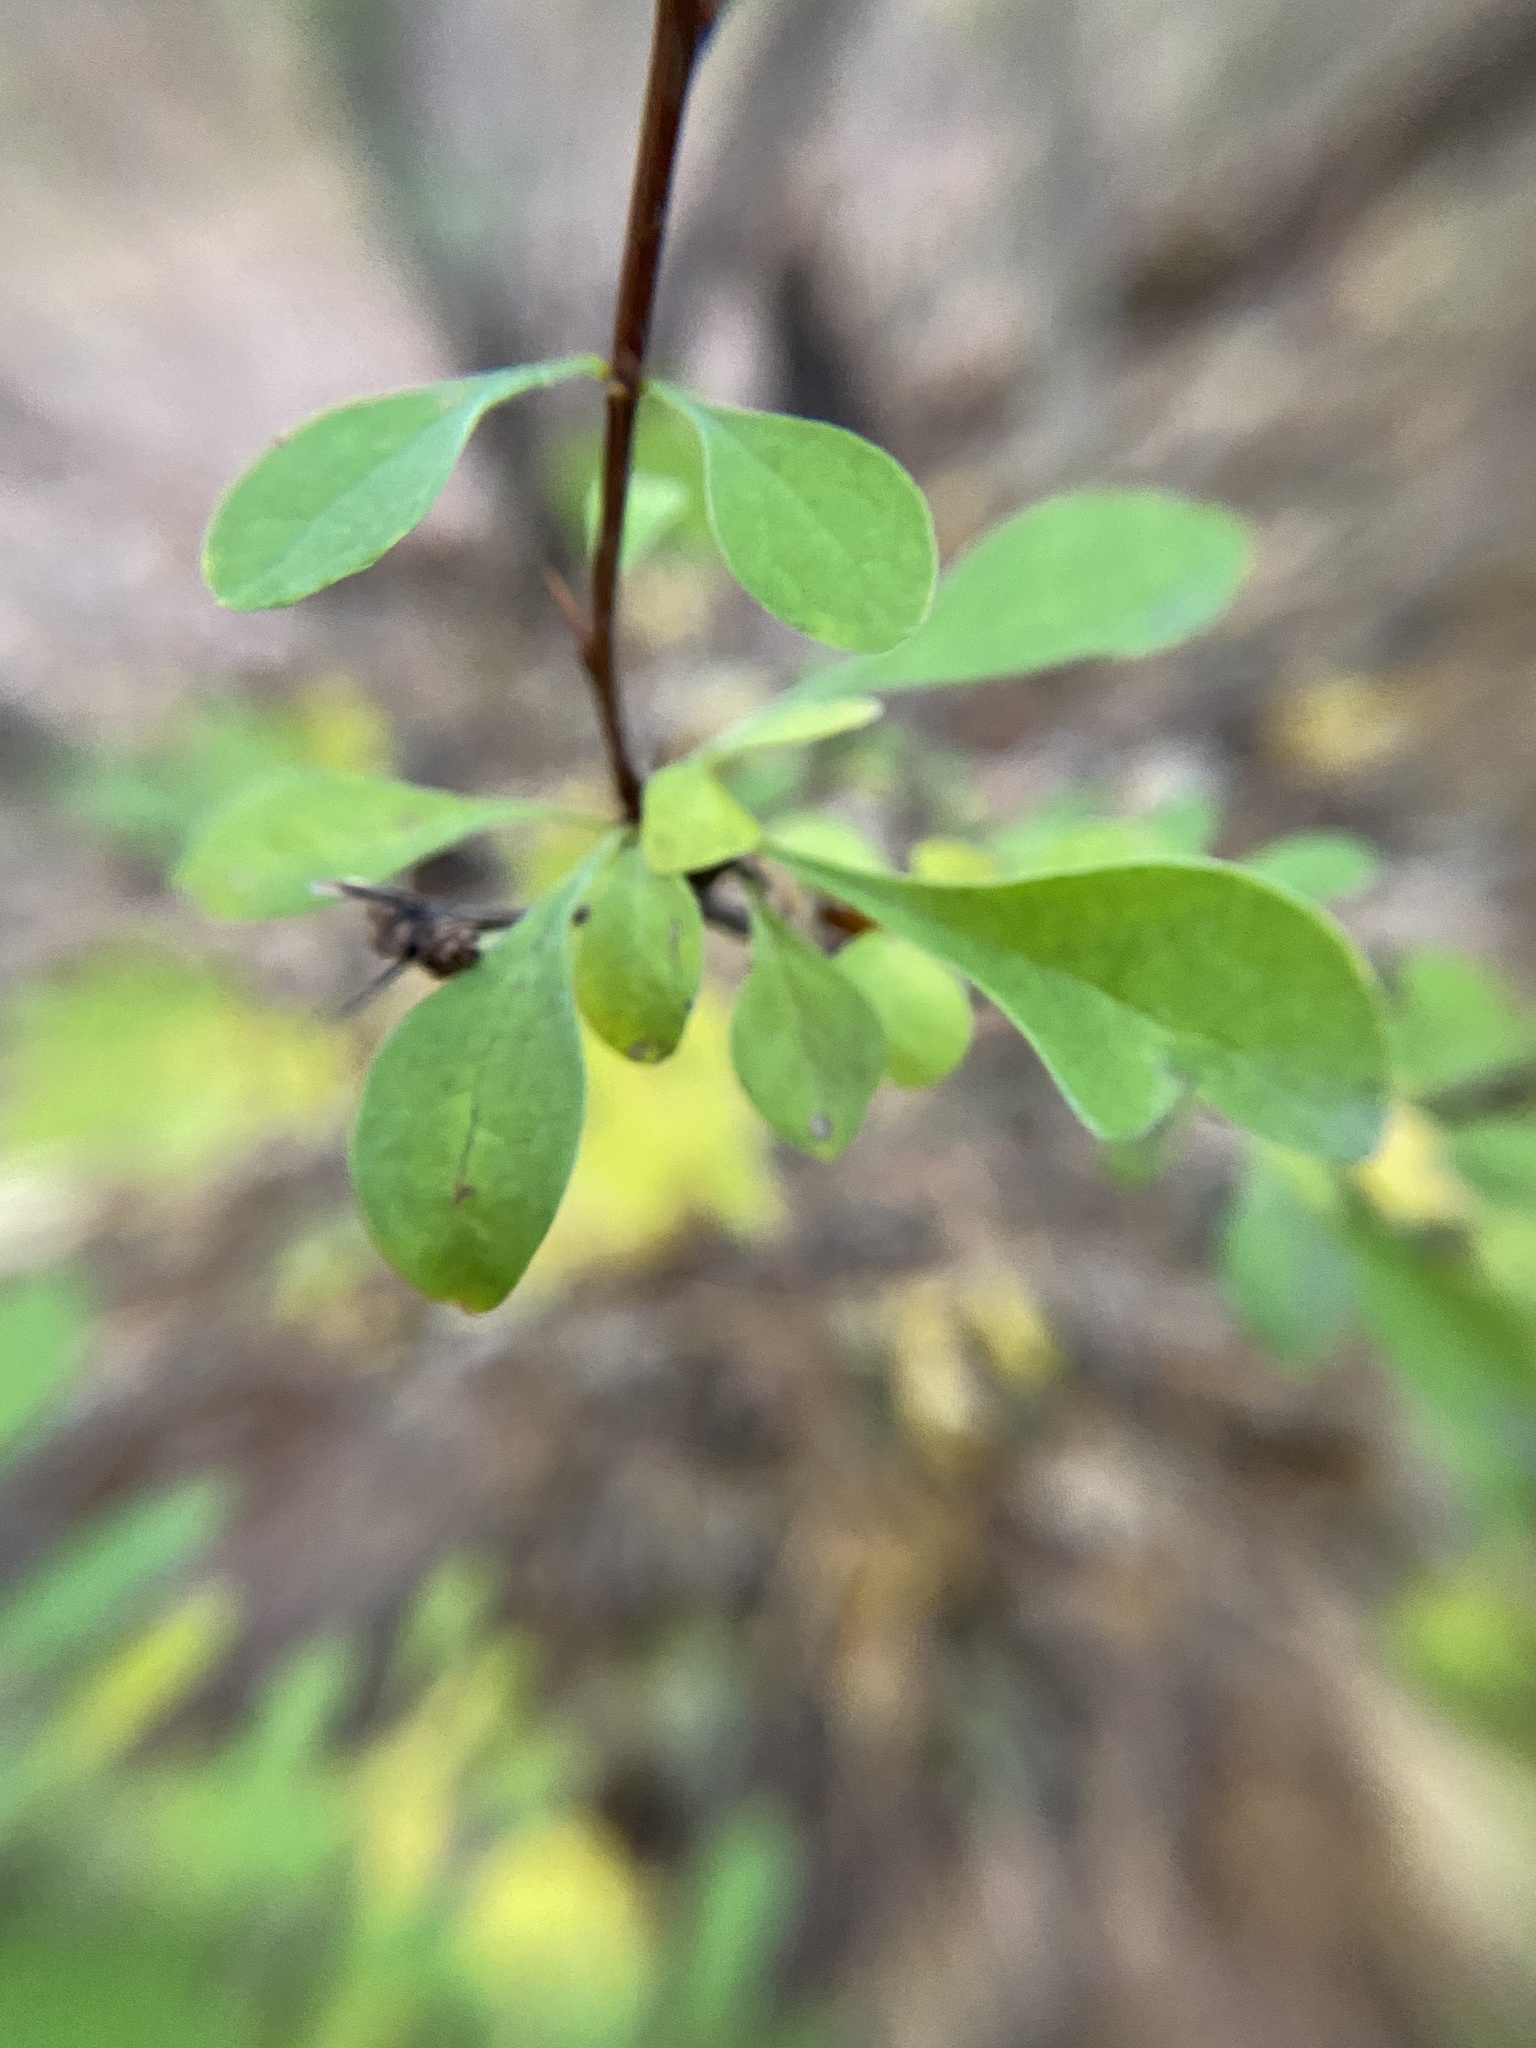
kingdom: Plantae
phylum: Tracheophyta
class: Magnoliopsida
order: Ranunculales
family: Berberidaceae
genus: Berberis
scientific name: Berberis thunbergii
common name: Japanese barberry
